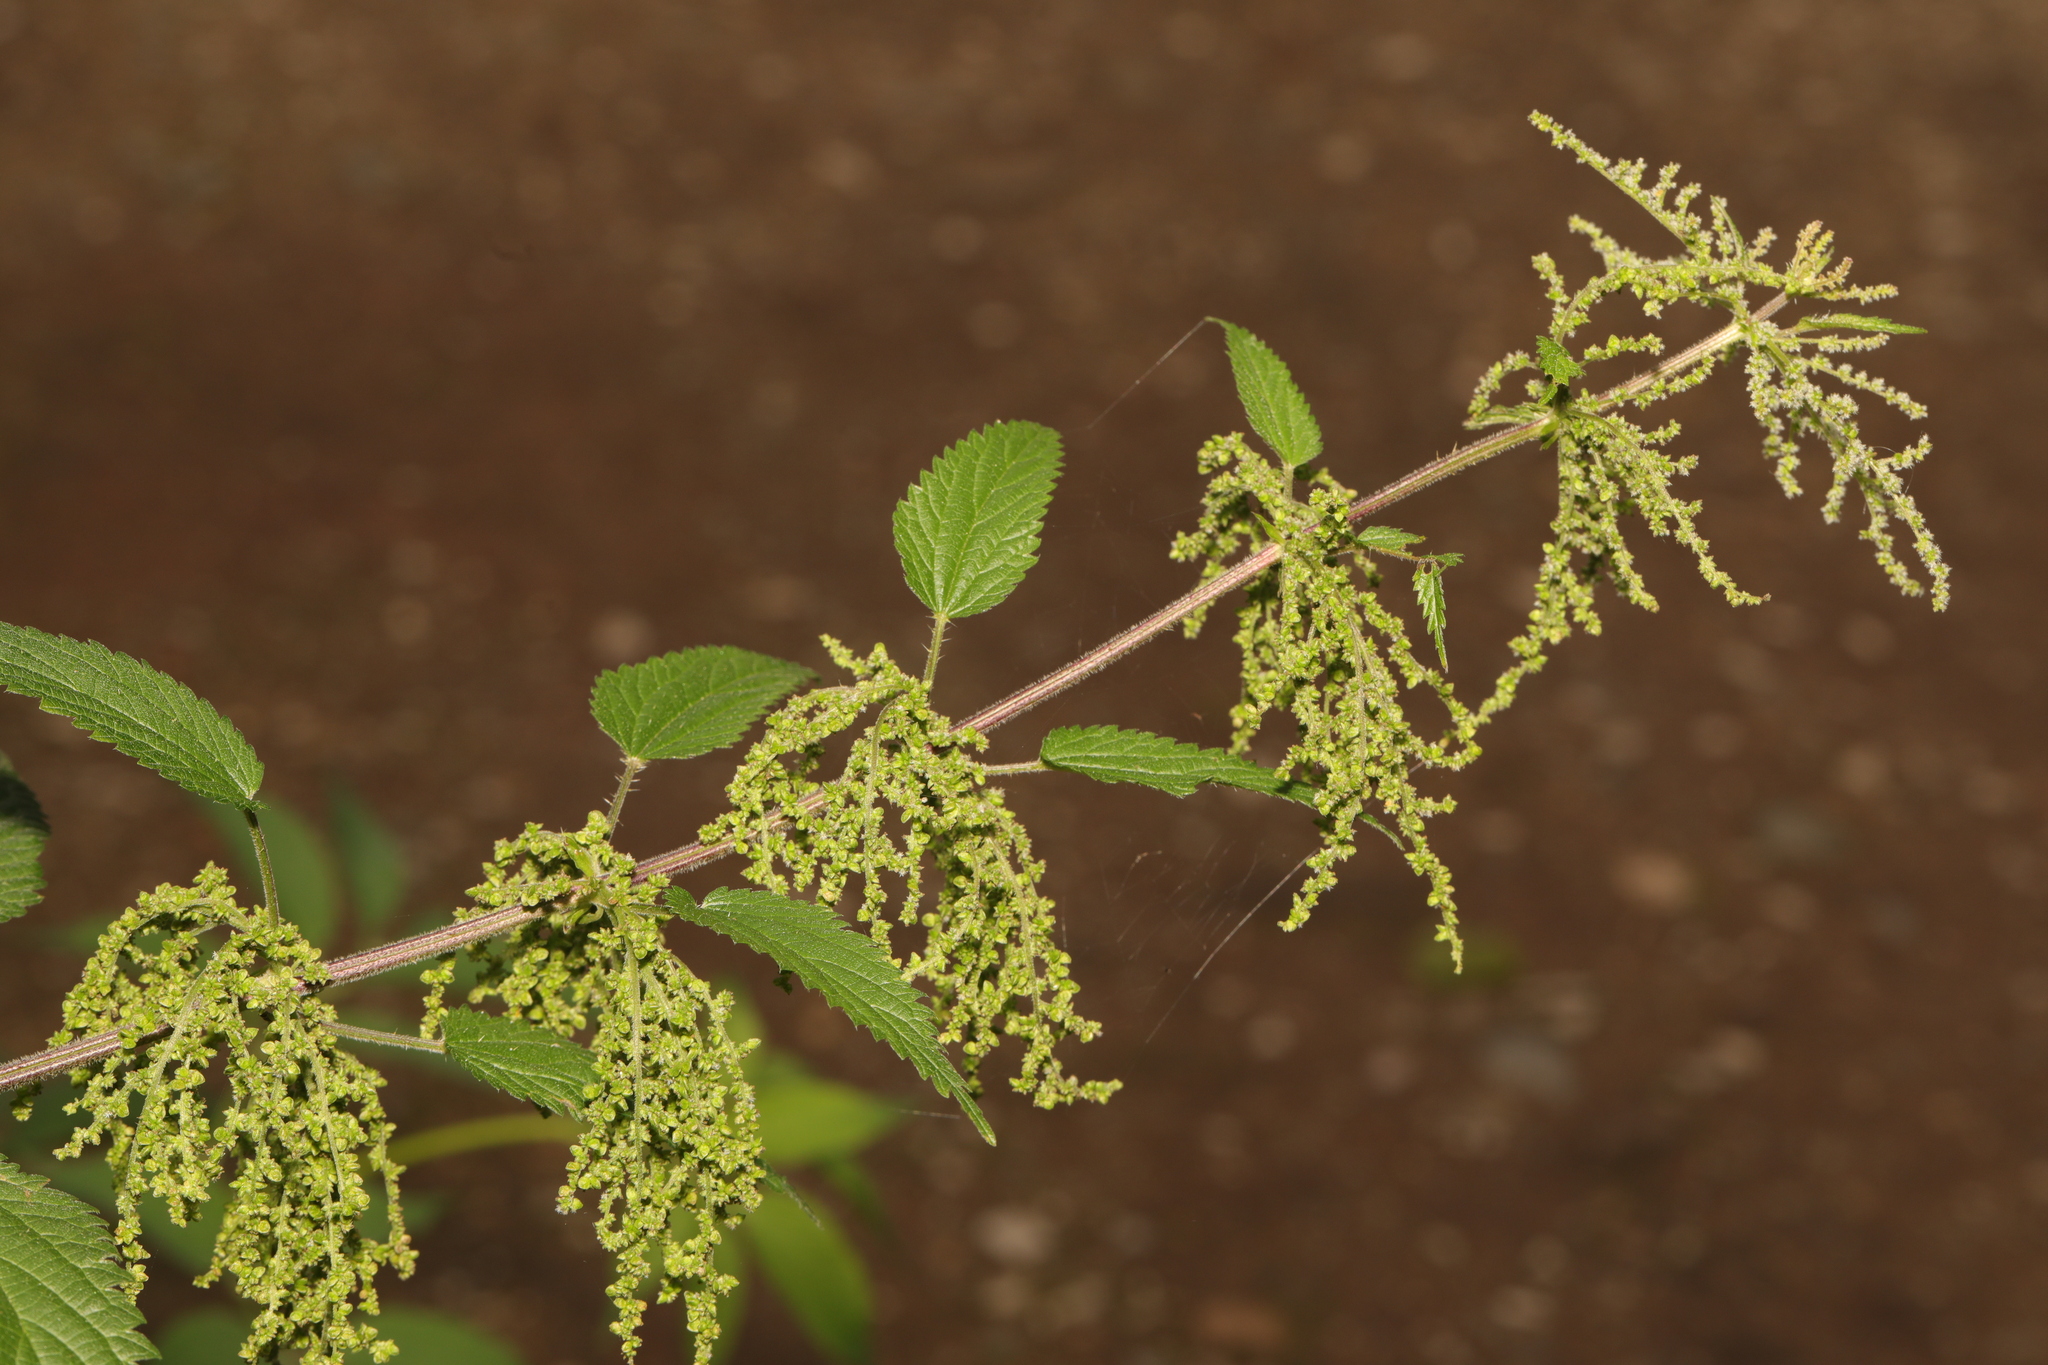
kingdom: Plantae
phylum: Tracheophyta
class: Magnoliopsida
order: Rosales
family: Urticaceae
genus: Urtica
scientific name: Urtica dioica
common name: Common nettle
